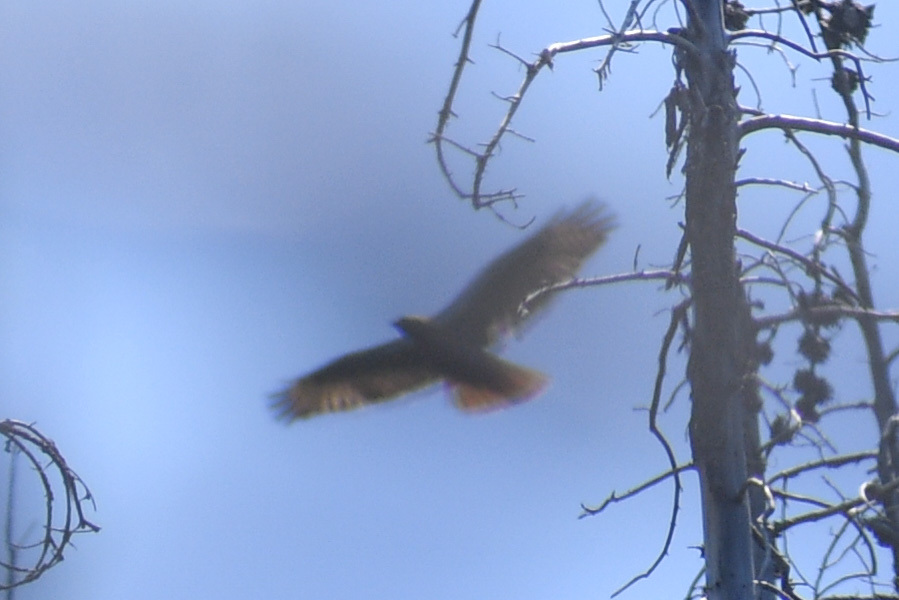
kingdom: Animalia
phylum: Chordata
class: Aves
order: Accipitriformes
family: Accipitridae
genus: Buteo
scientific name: Buteo jamaicensis
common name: Red-tailed hawk
